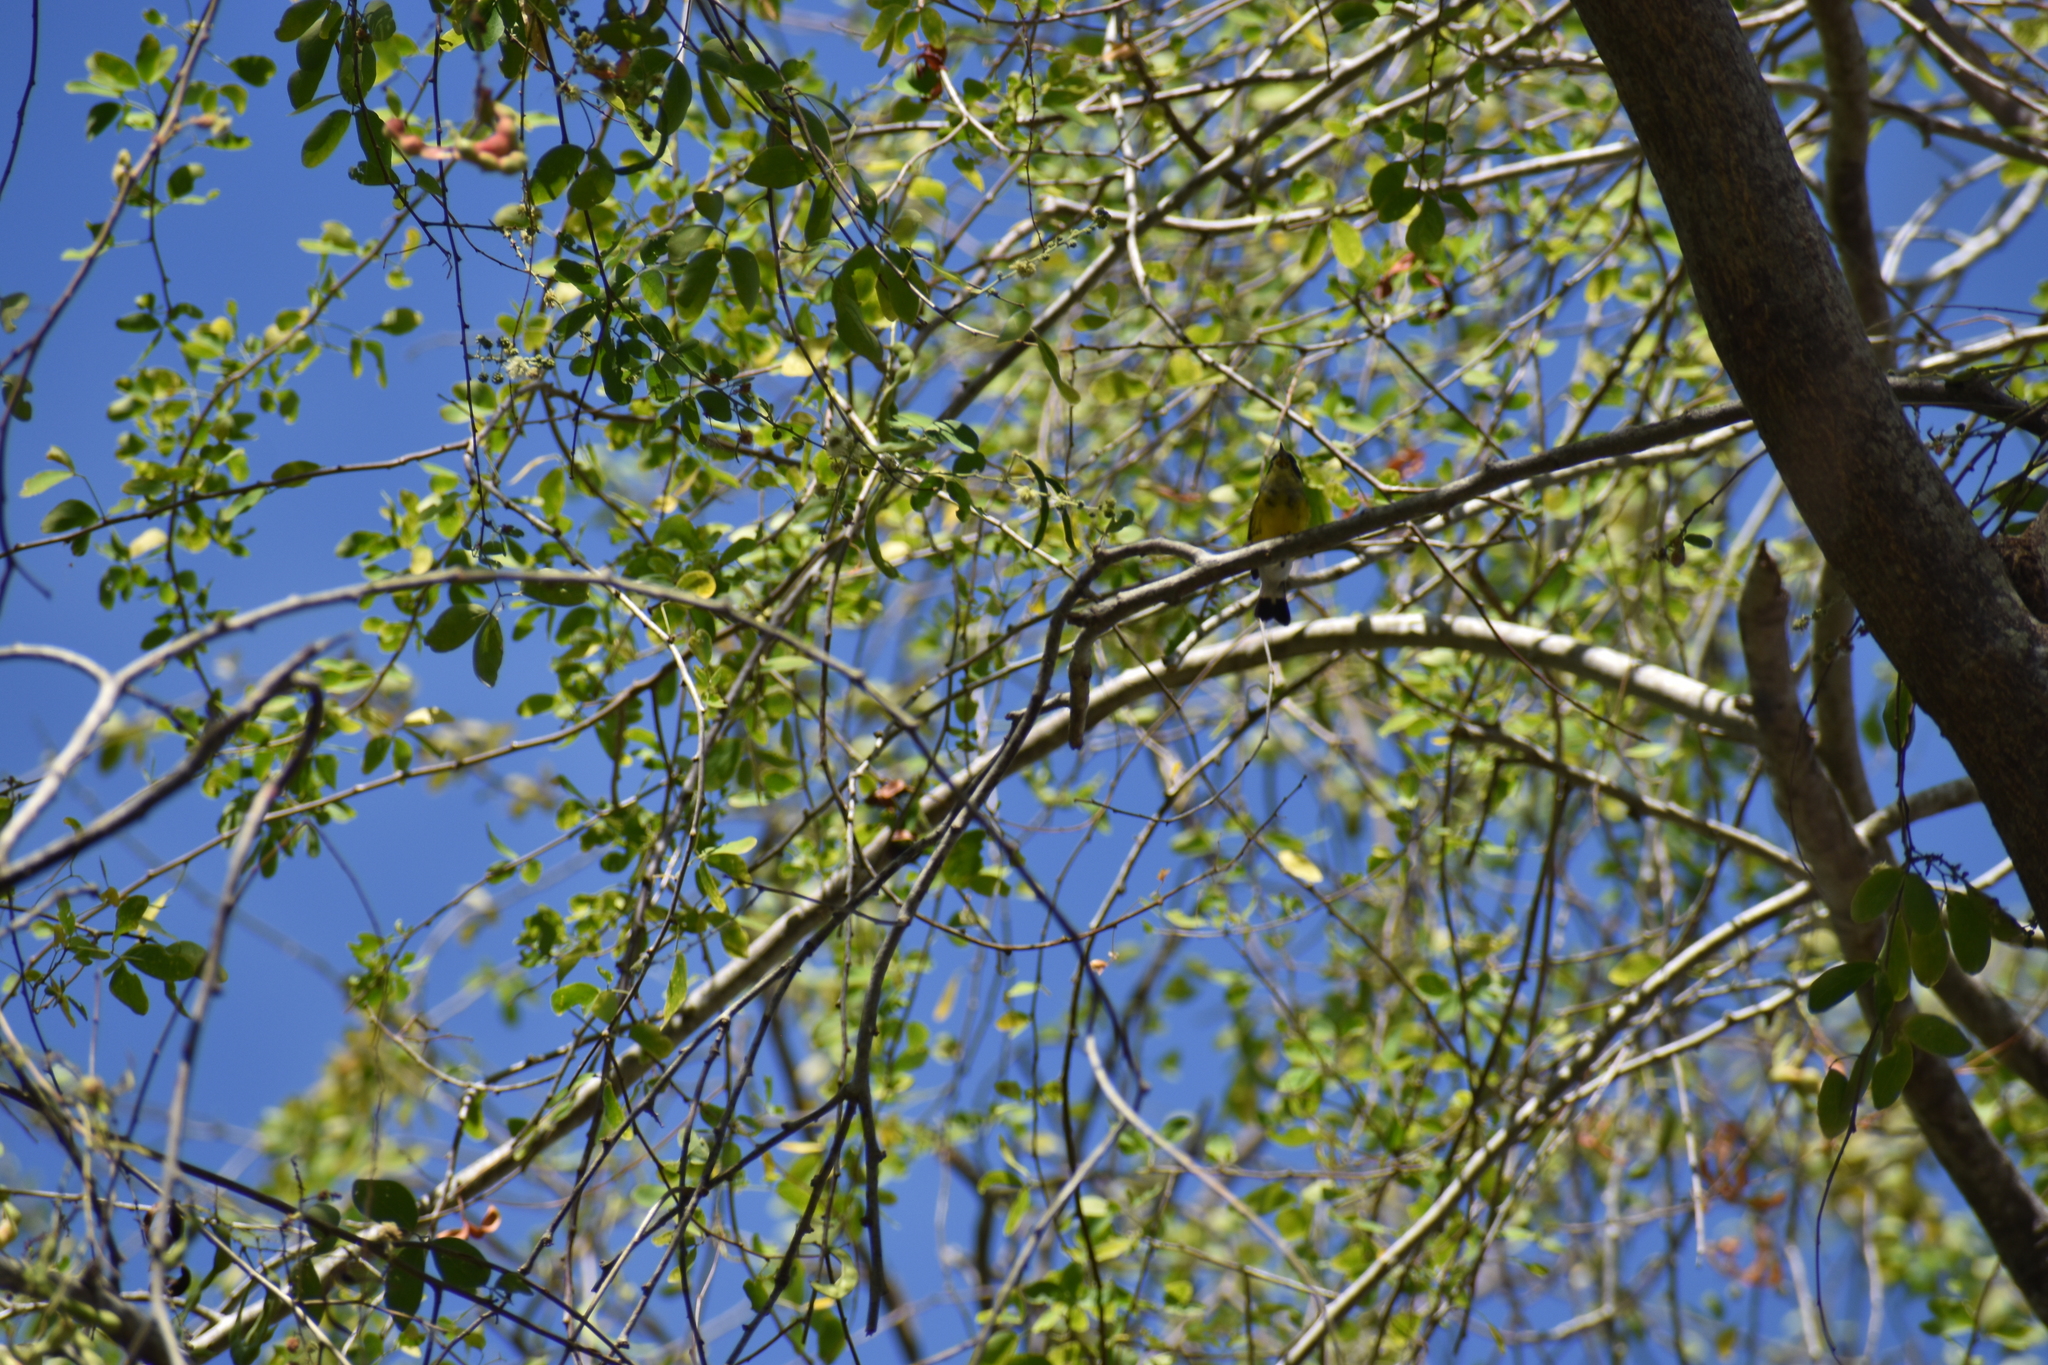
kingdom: Animalia
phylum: Chordata
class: Aves
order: Passeriformes
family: Parulidae
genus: Setophaga
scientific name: Setophaga magnolia
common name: Magnolia warbler
